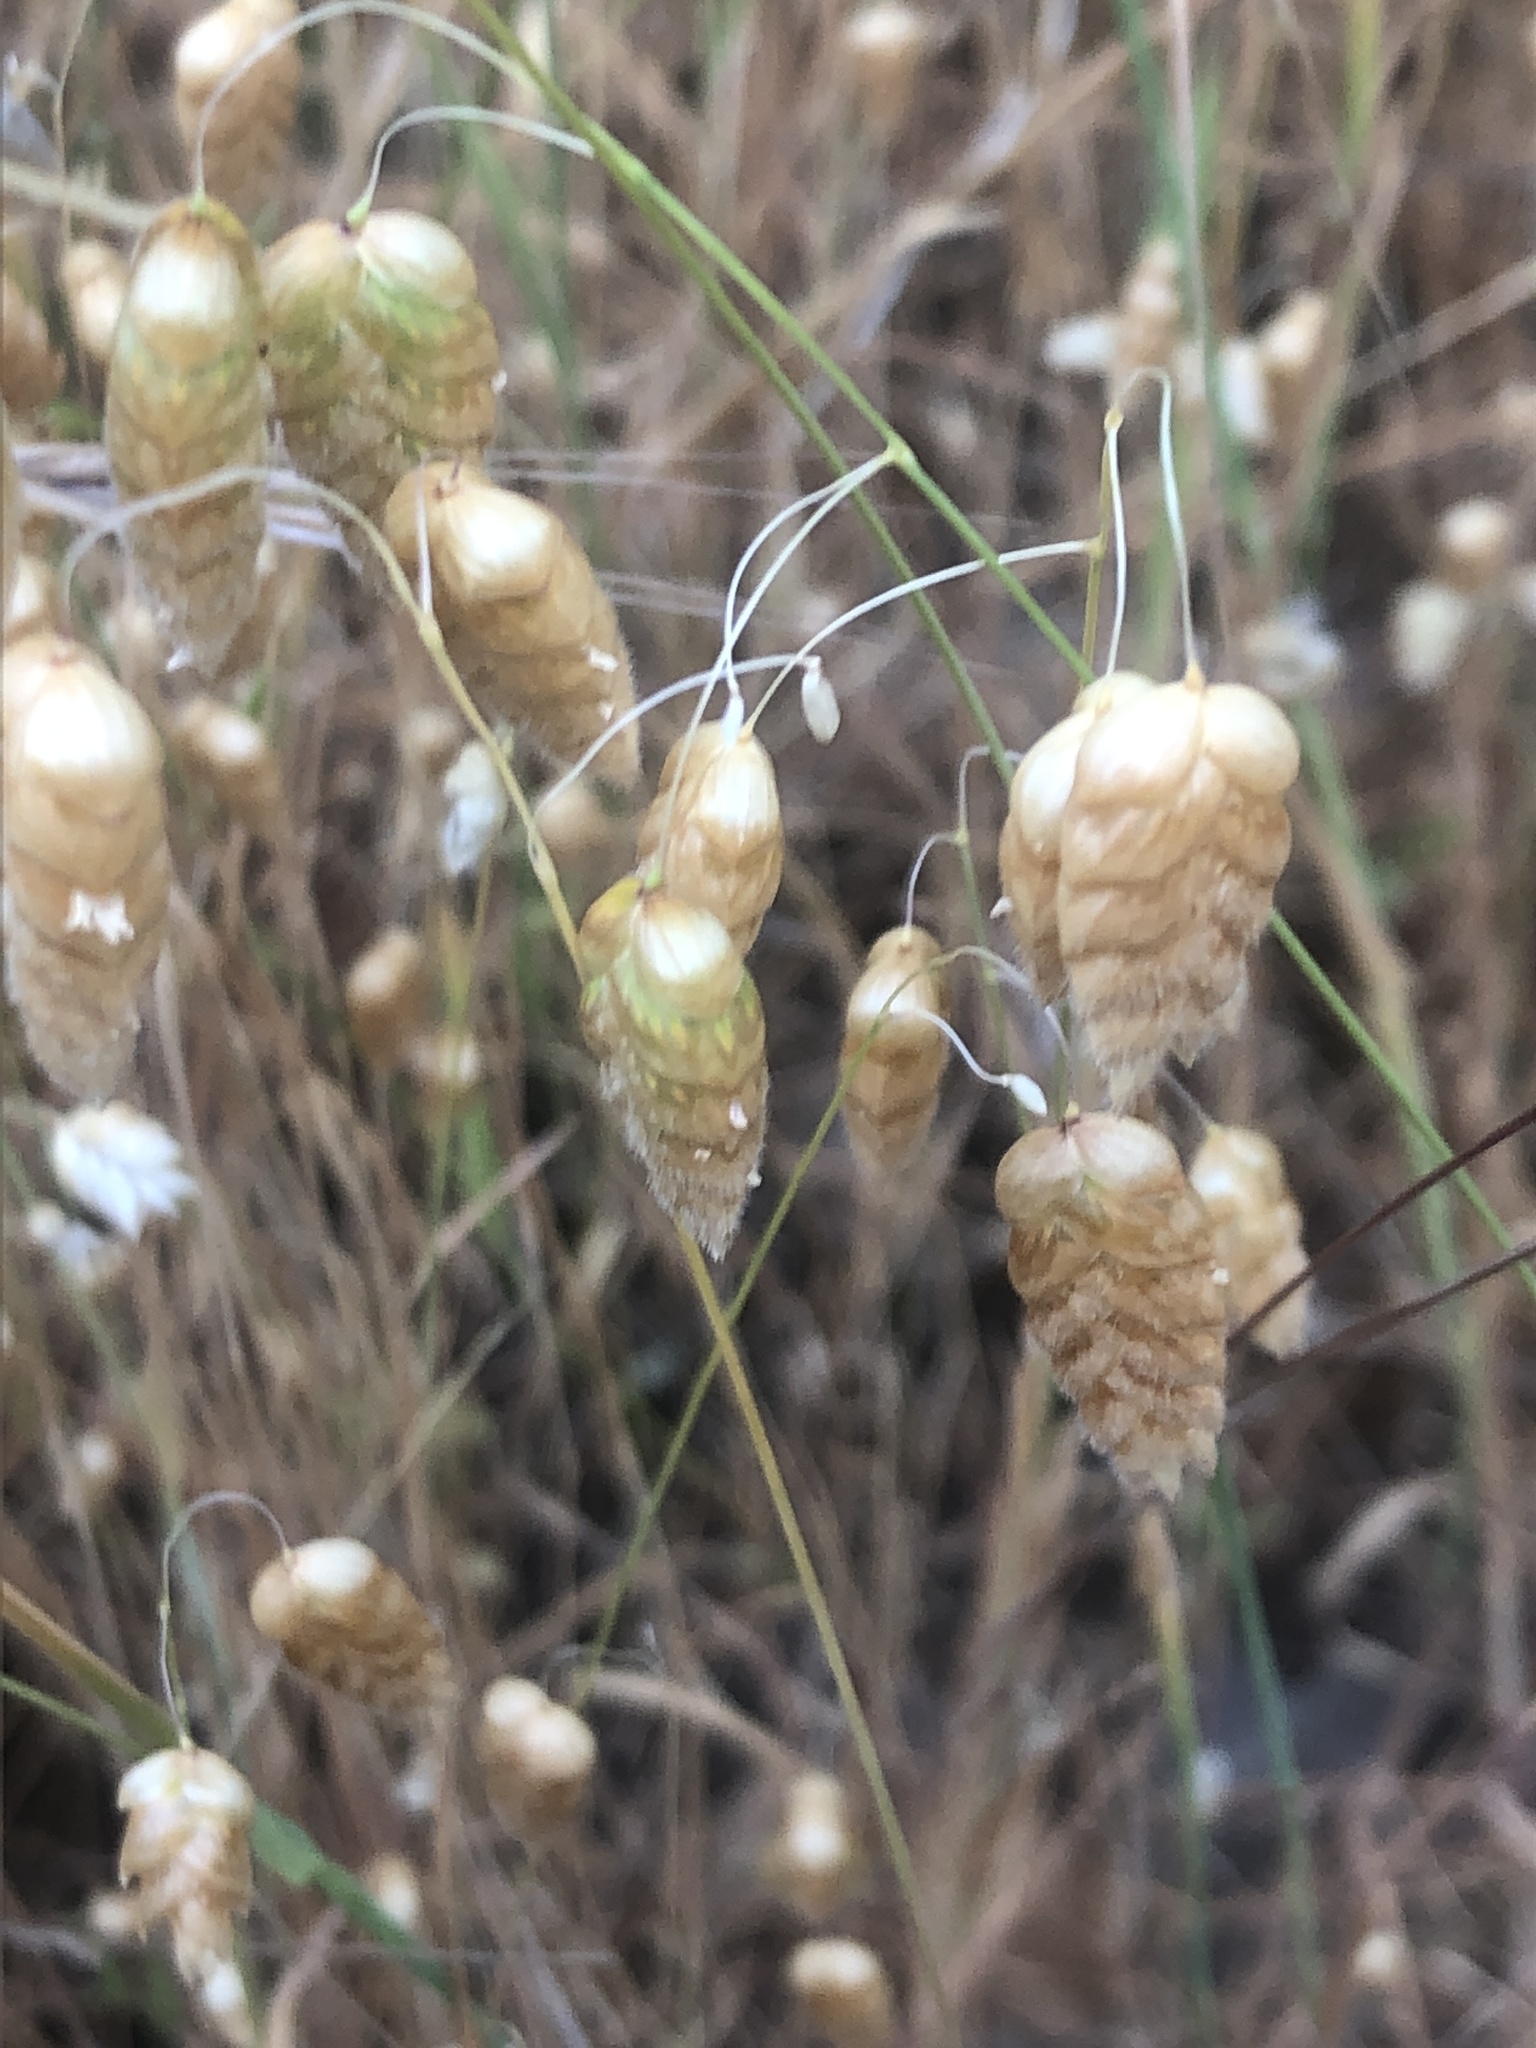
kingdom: Plantae
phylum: Tracheophyta
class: Liliopsida
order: Poales
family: Poaceae
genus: Briza
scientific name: Briza maxima
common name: Big quakinggrass
